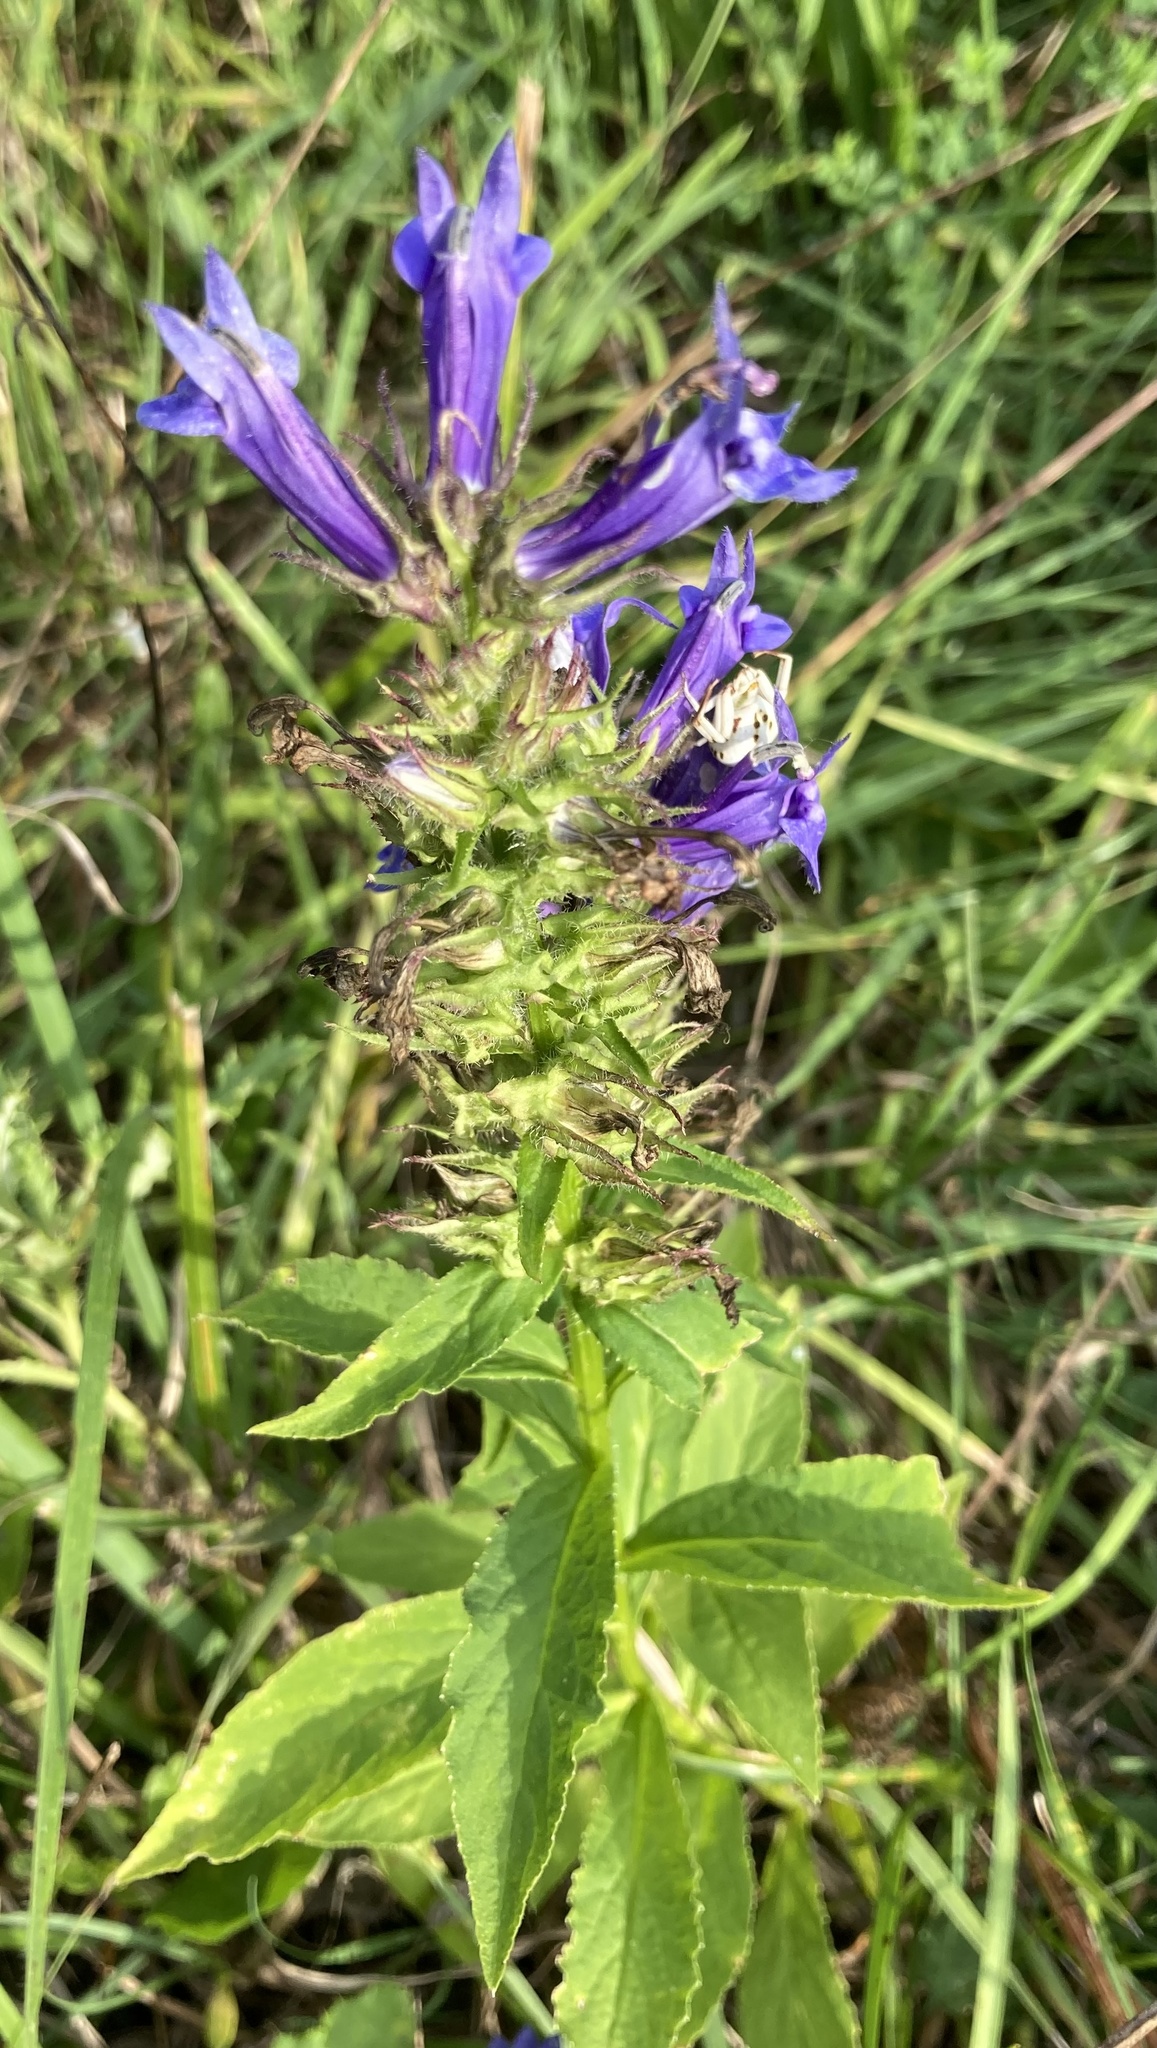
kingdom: Plantae
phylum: Tracheophyta
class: Magnoliopsida
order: Asterales
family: Campanulaceae
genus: Lobelia
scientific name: Lobelia siphilitica
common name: Great lobelia
